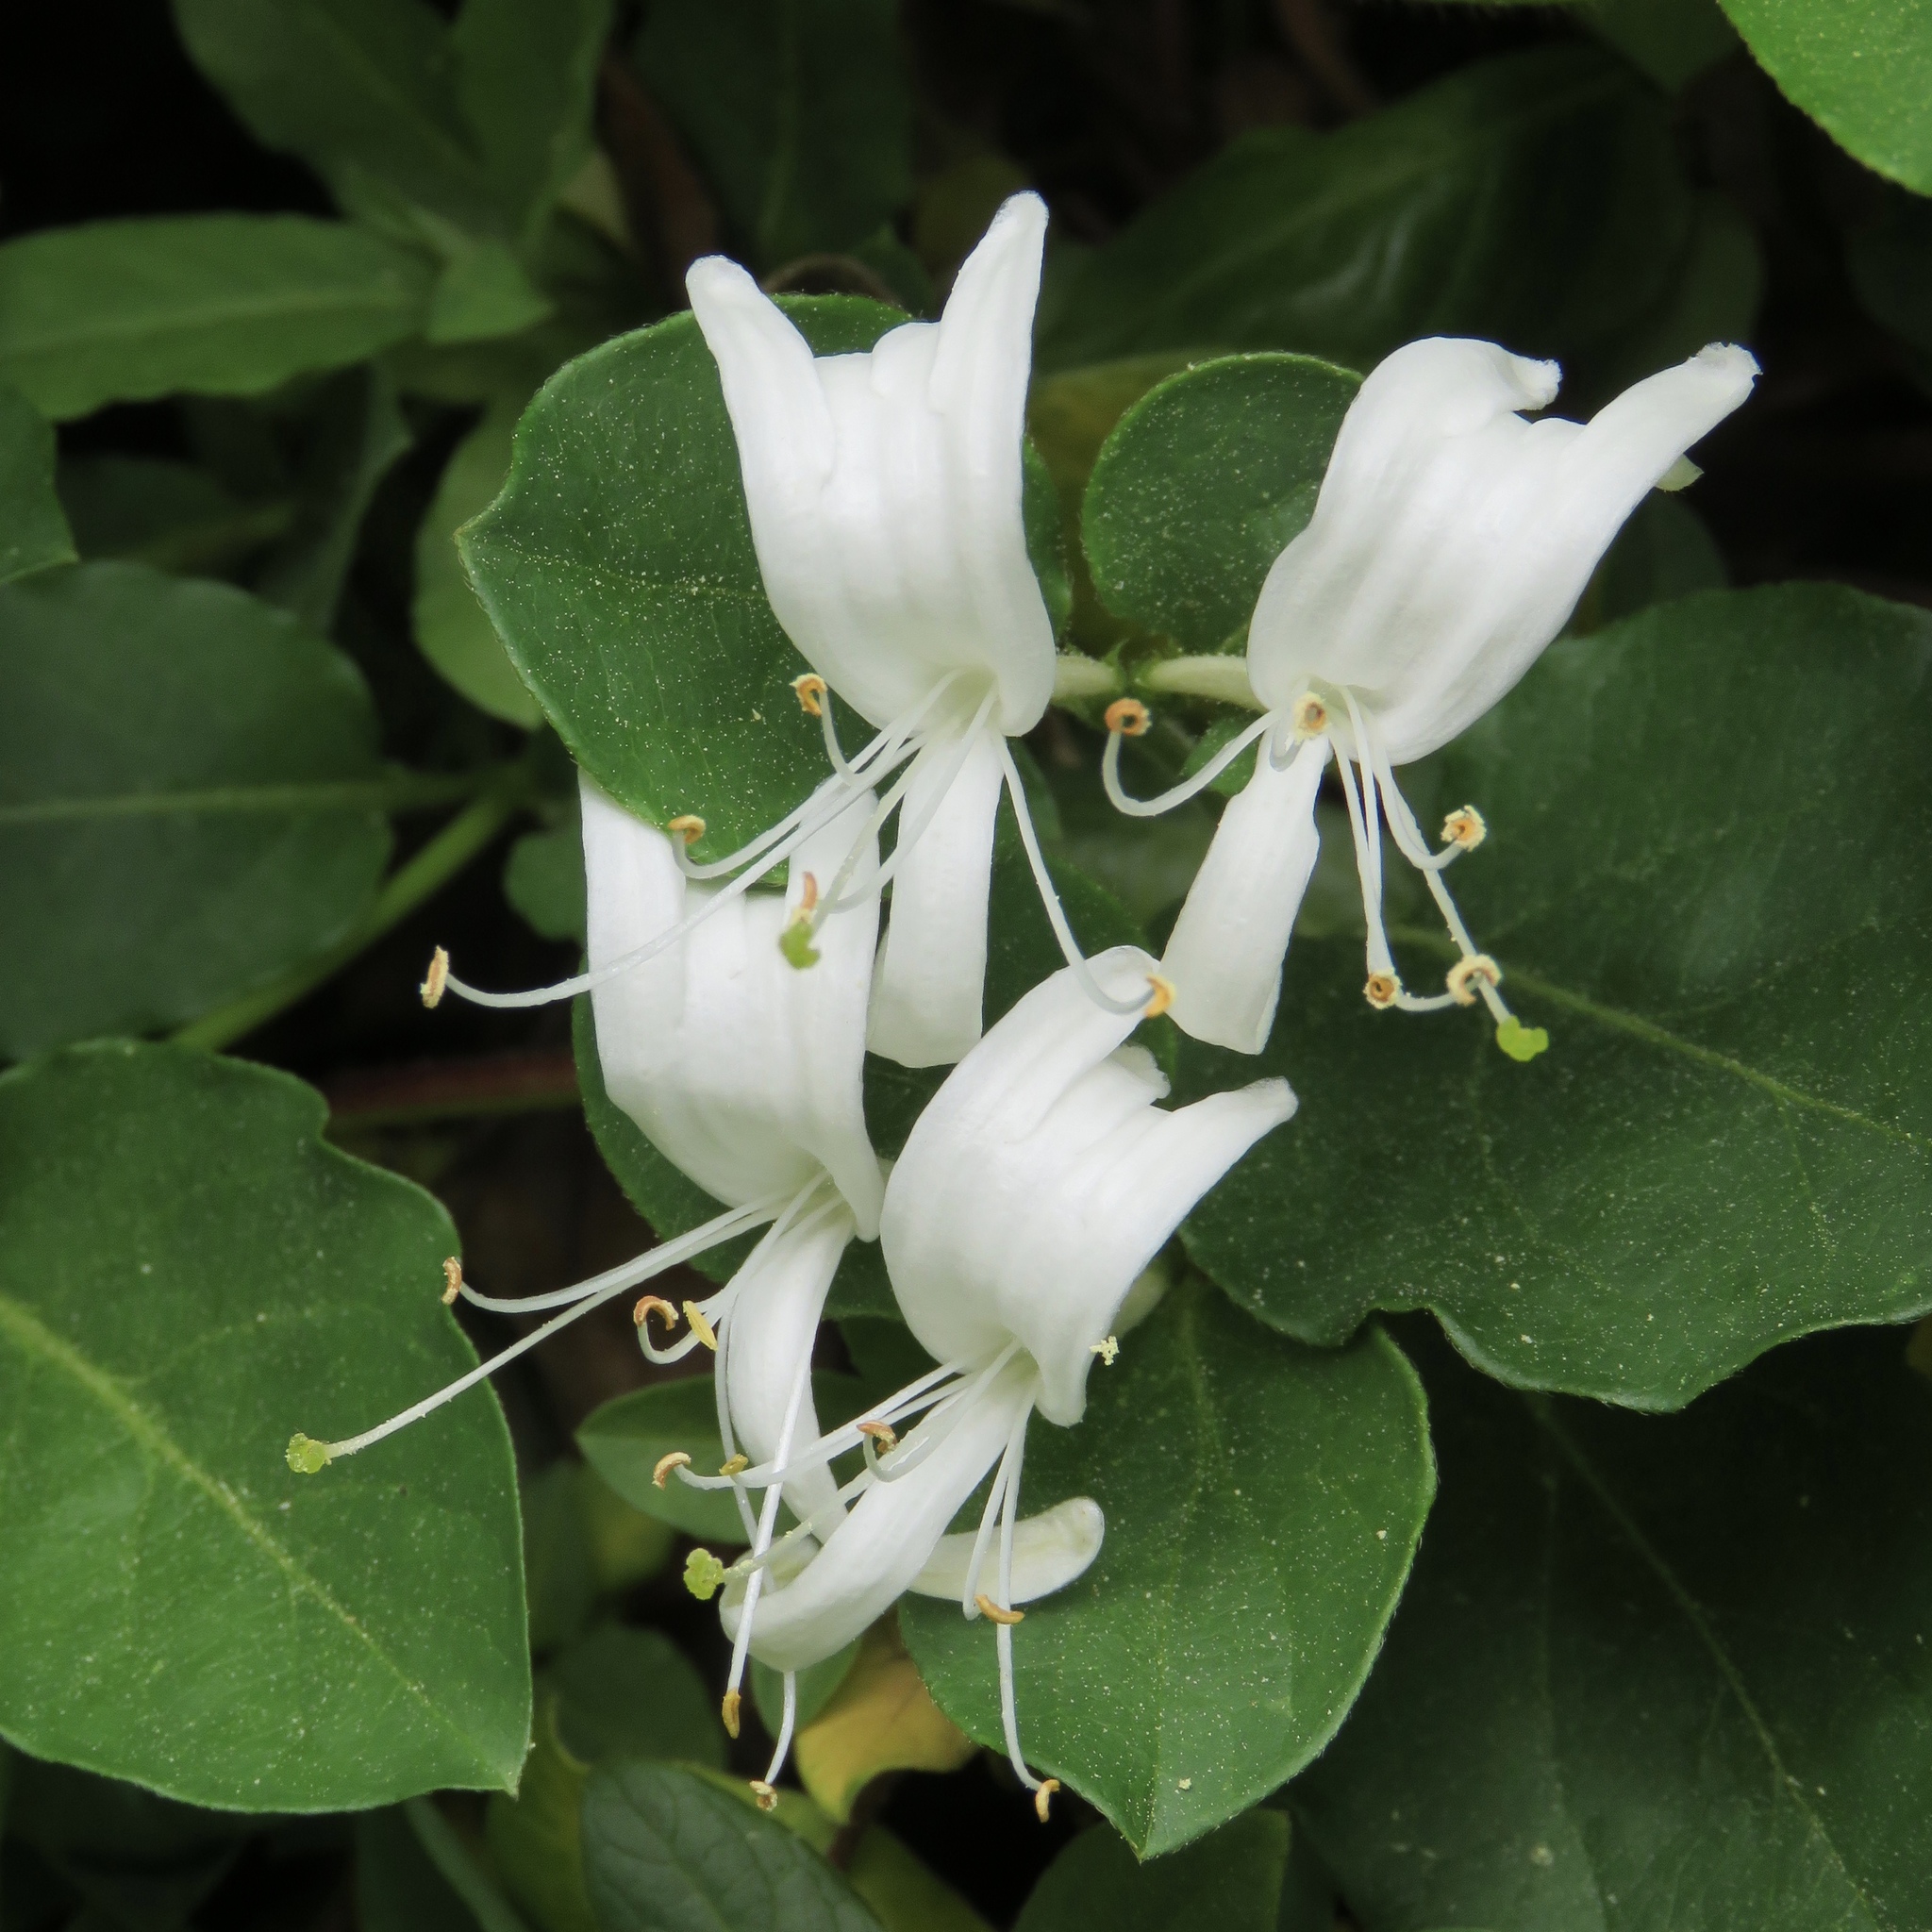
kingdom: Plantae
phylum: Tracheophyta
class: Magnoliopsida
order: Dipsacales
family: Caprifoliaceae
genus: Lonicera
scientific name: Lonicera japonica
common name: Japanese honeysuckle
